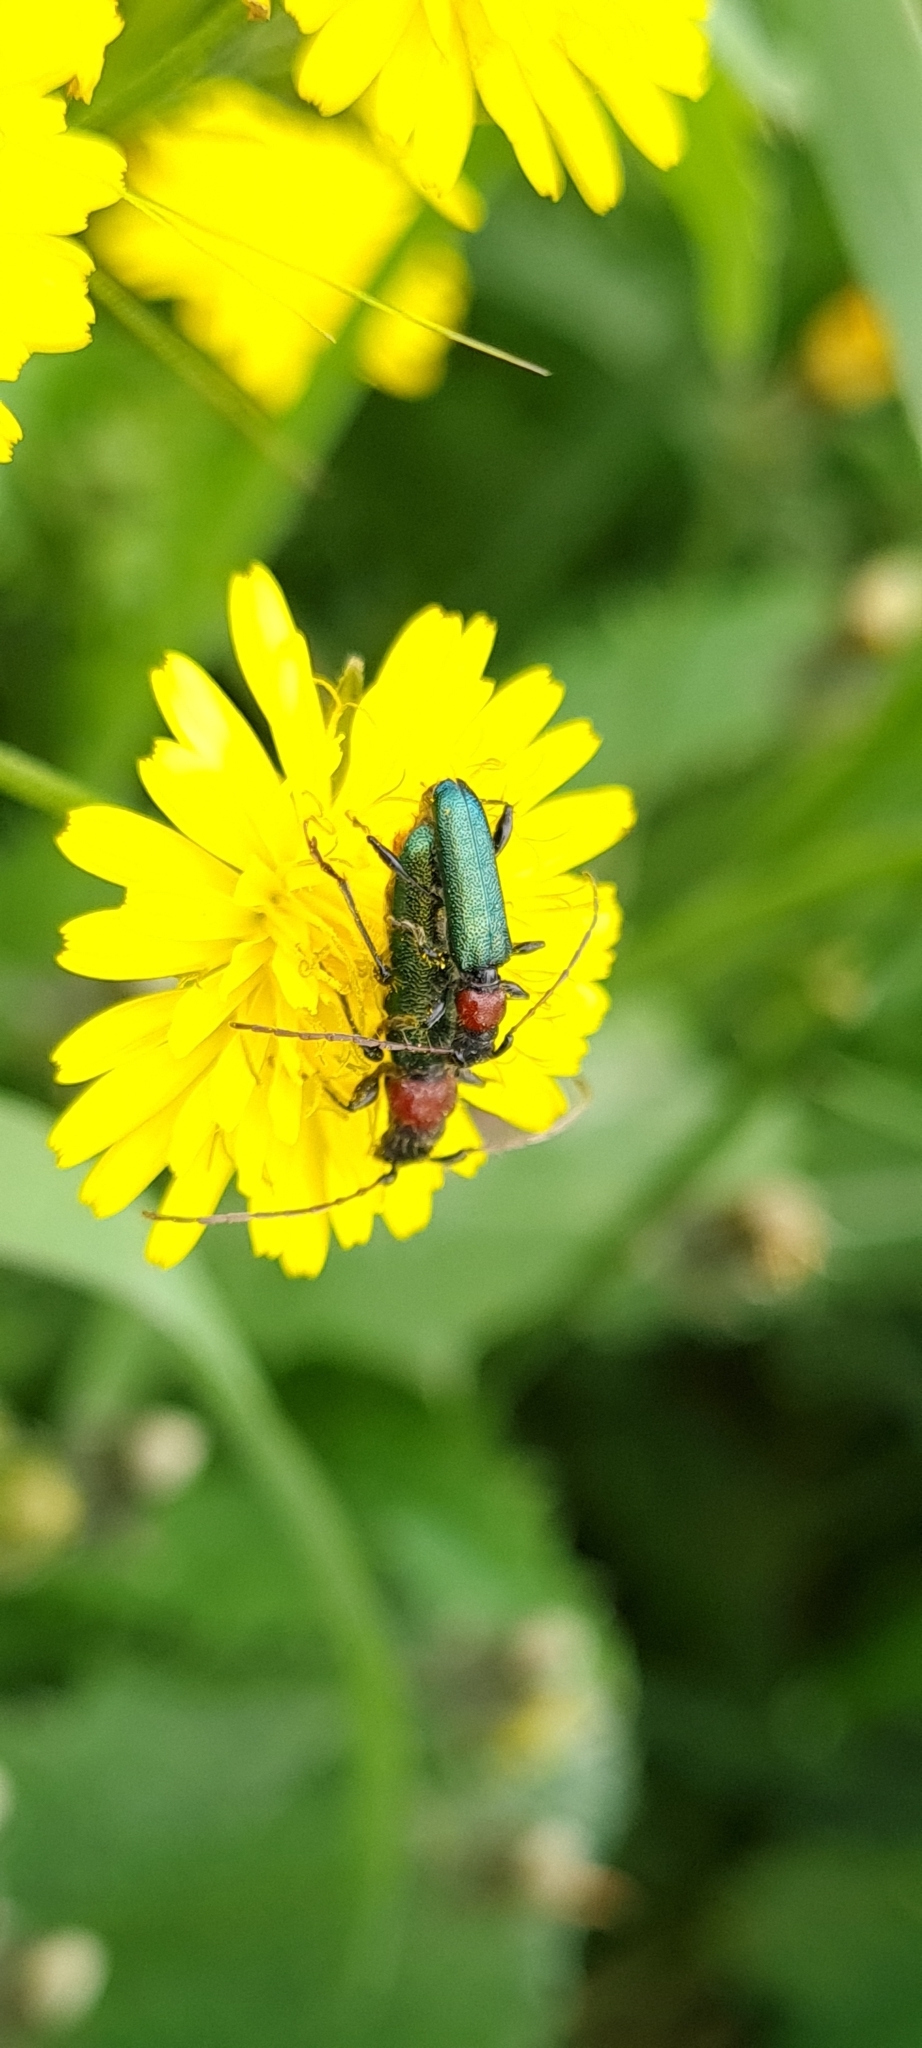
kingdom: Animalia
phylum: Arthropoda
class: Insecta
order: Coleoptera
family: Cerambycidae
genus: Certallum
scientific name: Certallum ebulinum
